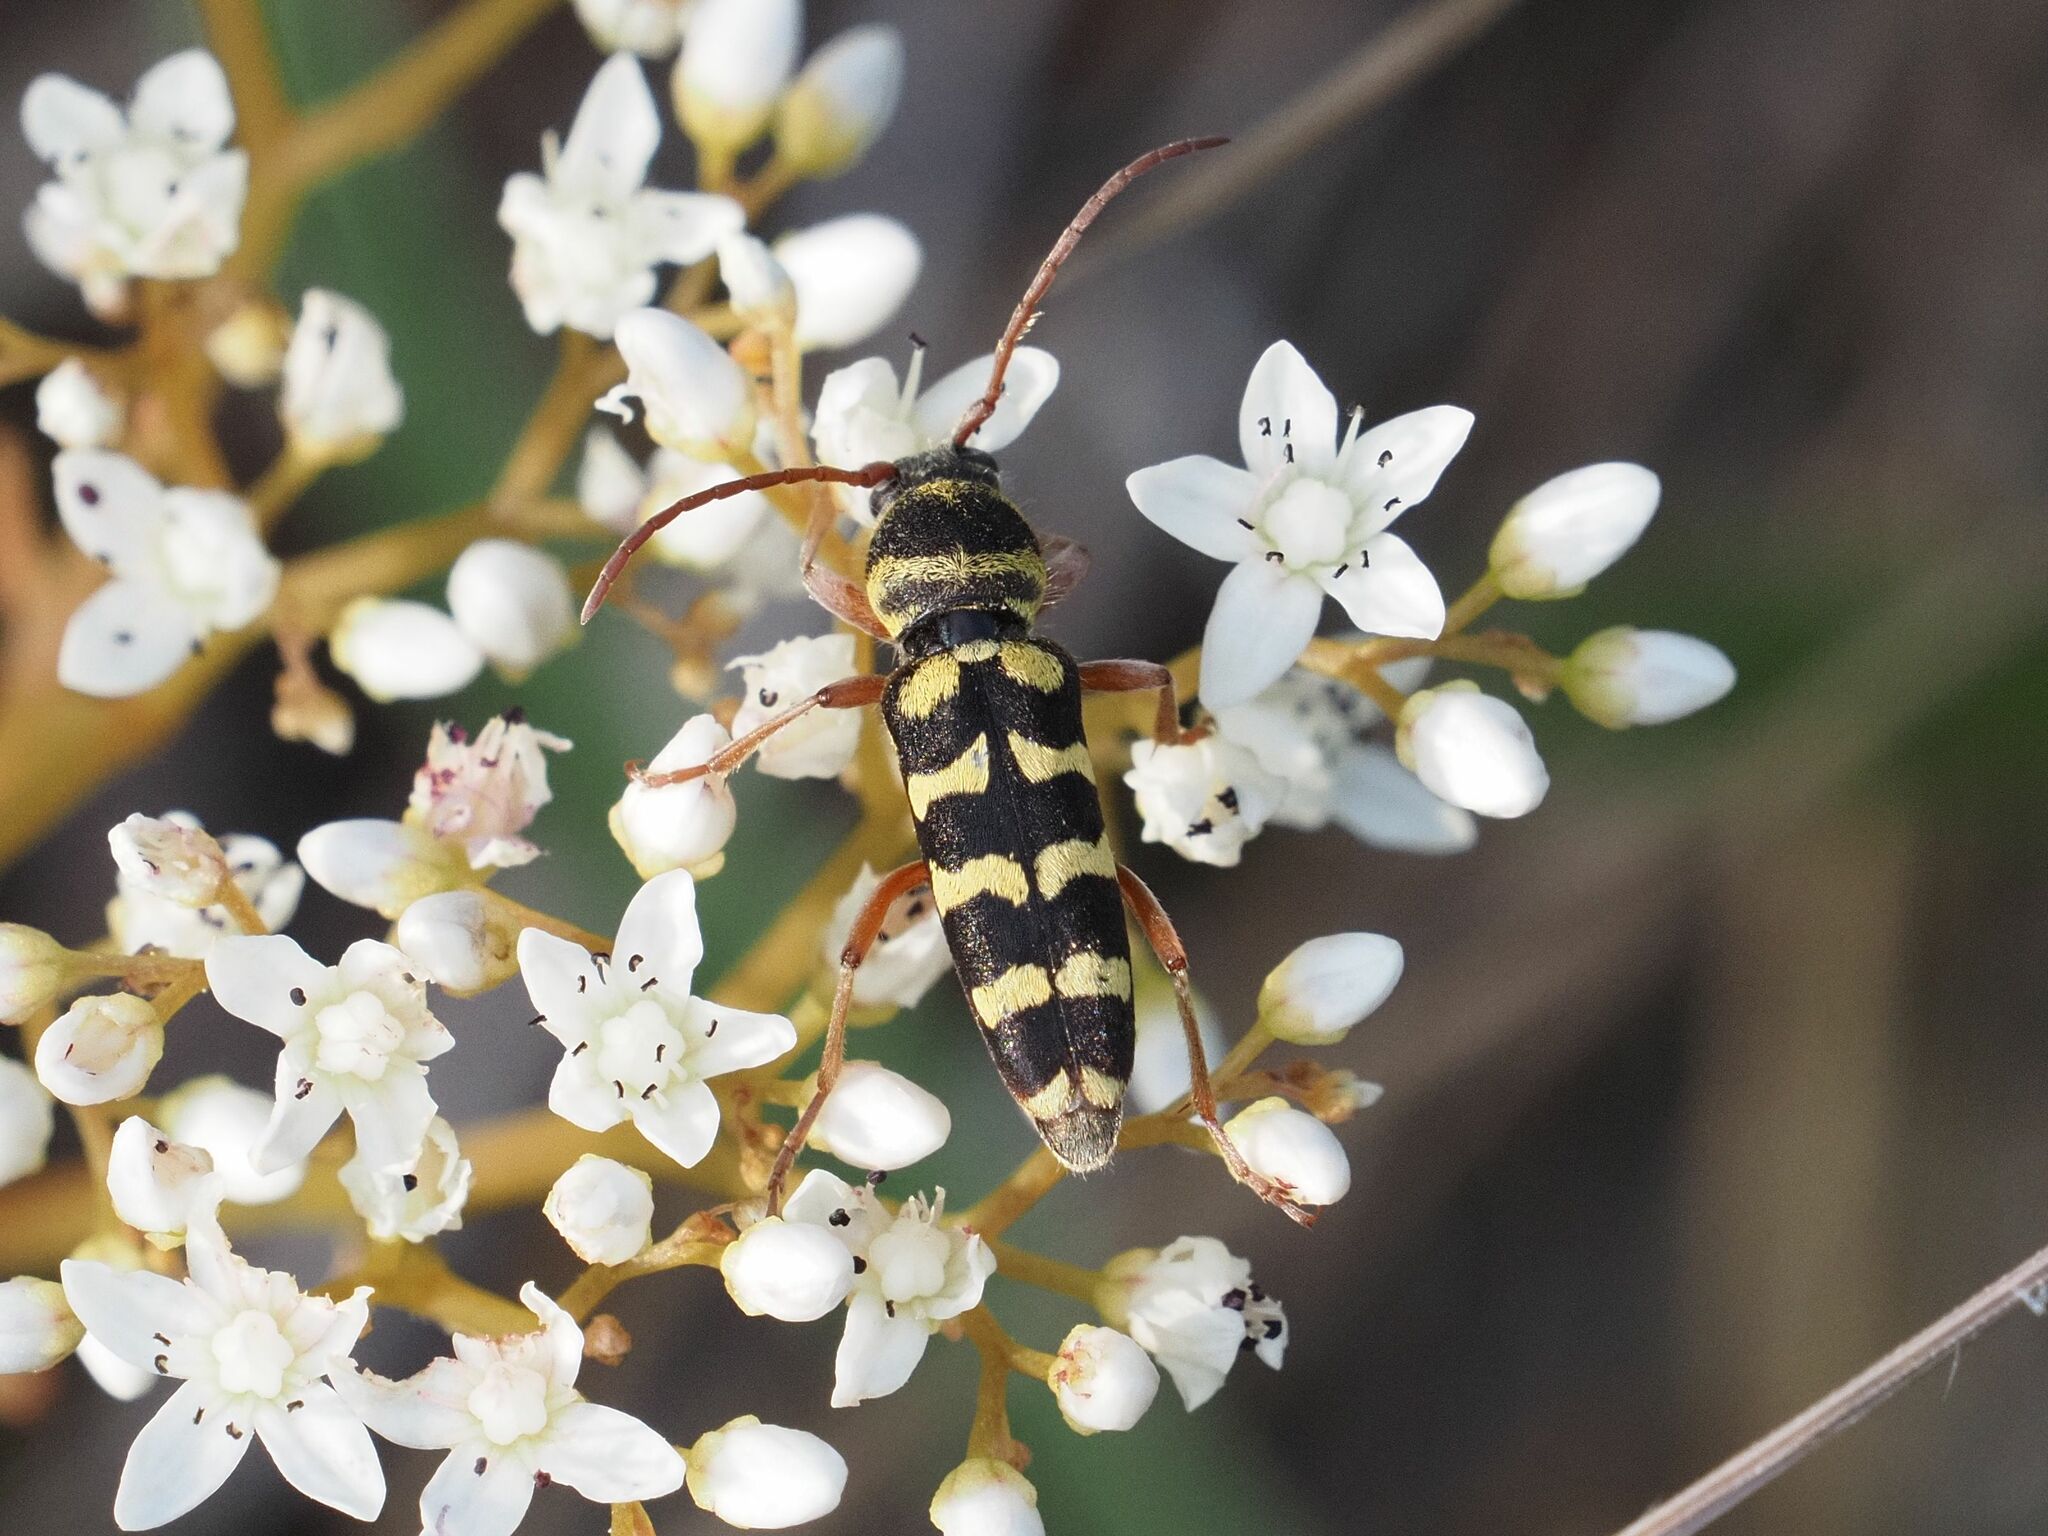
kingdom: Animalia
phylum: Arthropoda
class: Insecta
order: Coleoptera
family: Cerambycidae
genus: Plagionotus
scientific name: Plagionotus floralis
